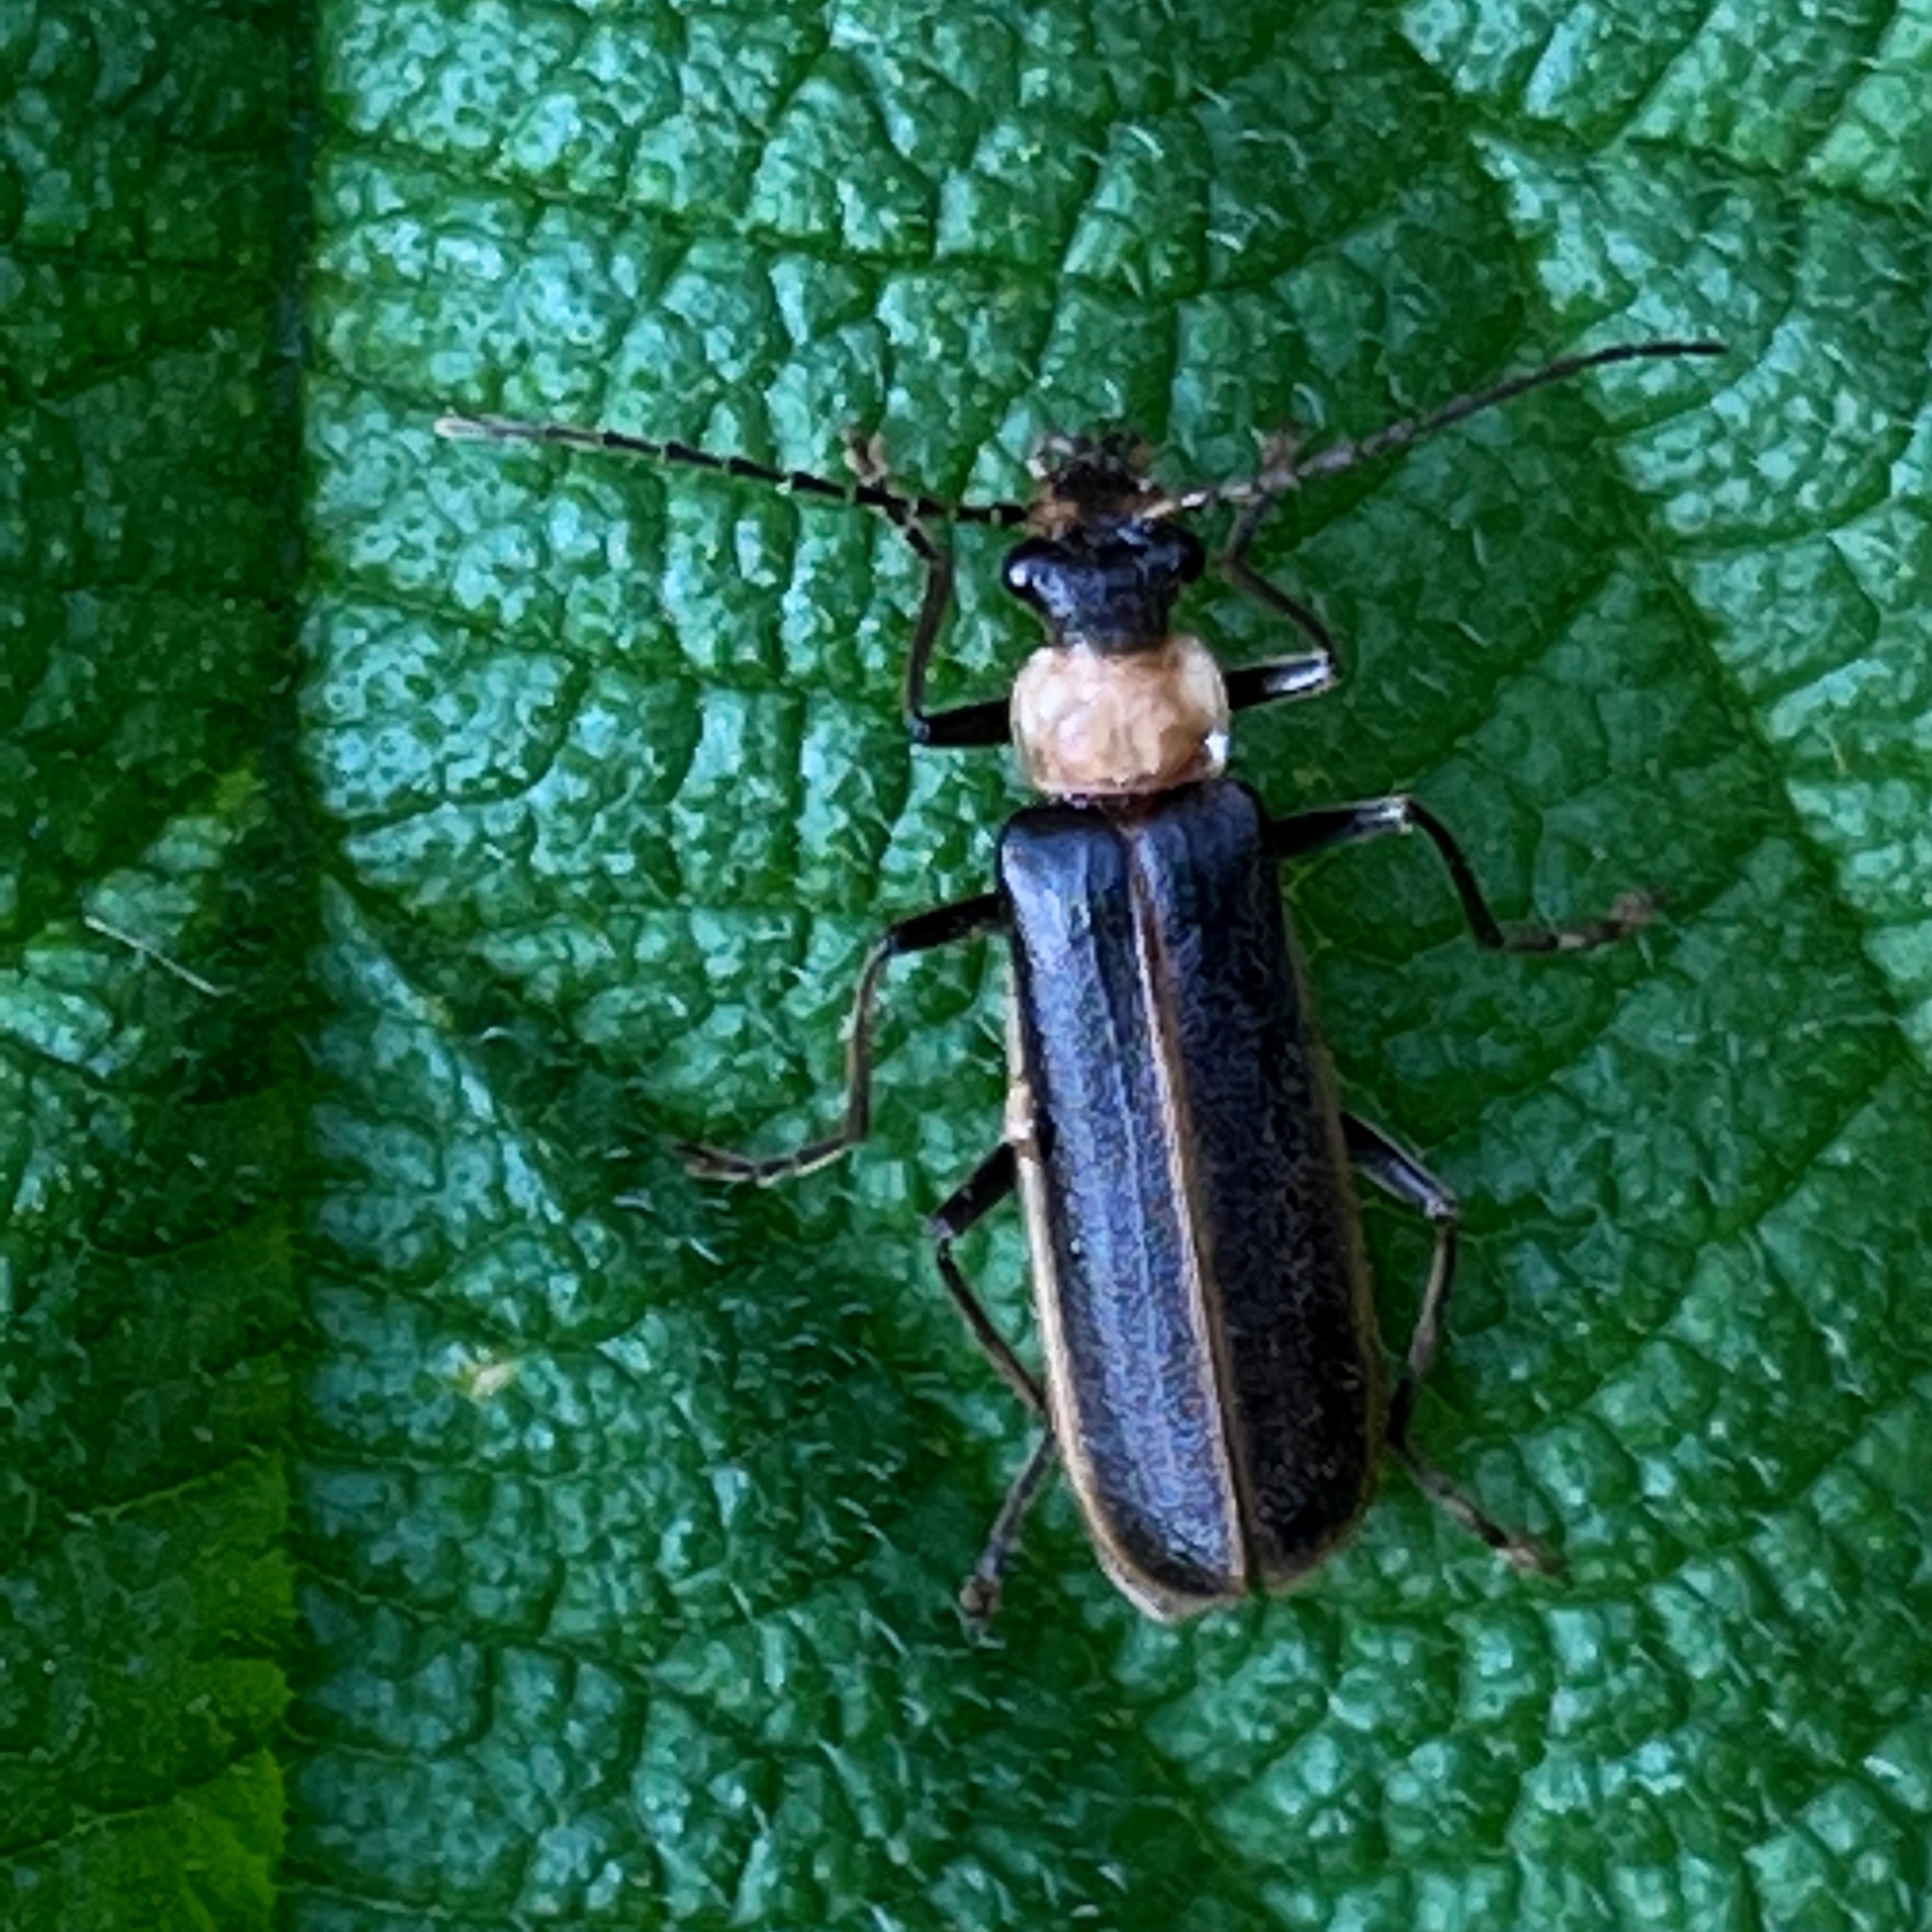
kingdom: Animalia
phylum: Arthropoda
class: Insecta
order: Coleoptera
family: Cantharidae
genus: Podabrus
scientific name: Podabrus flavicollis
